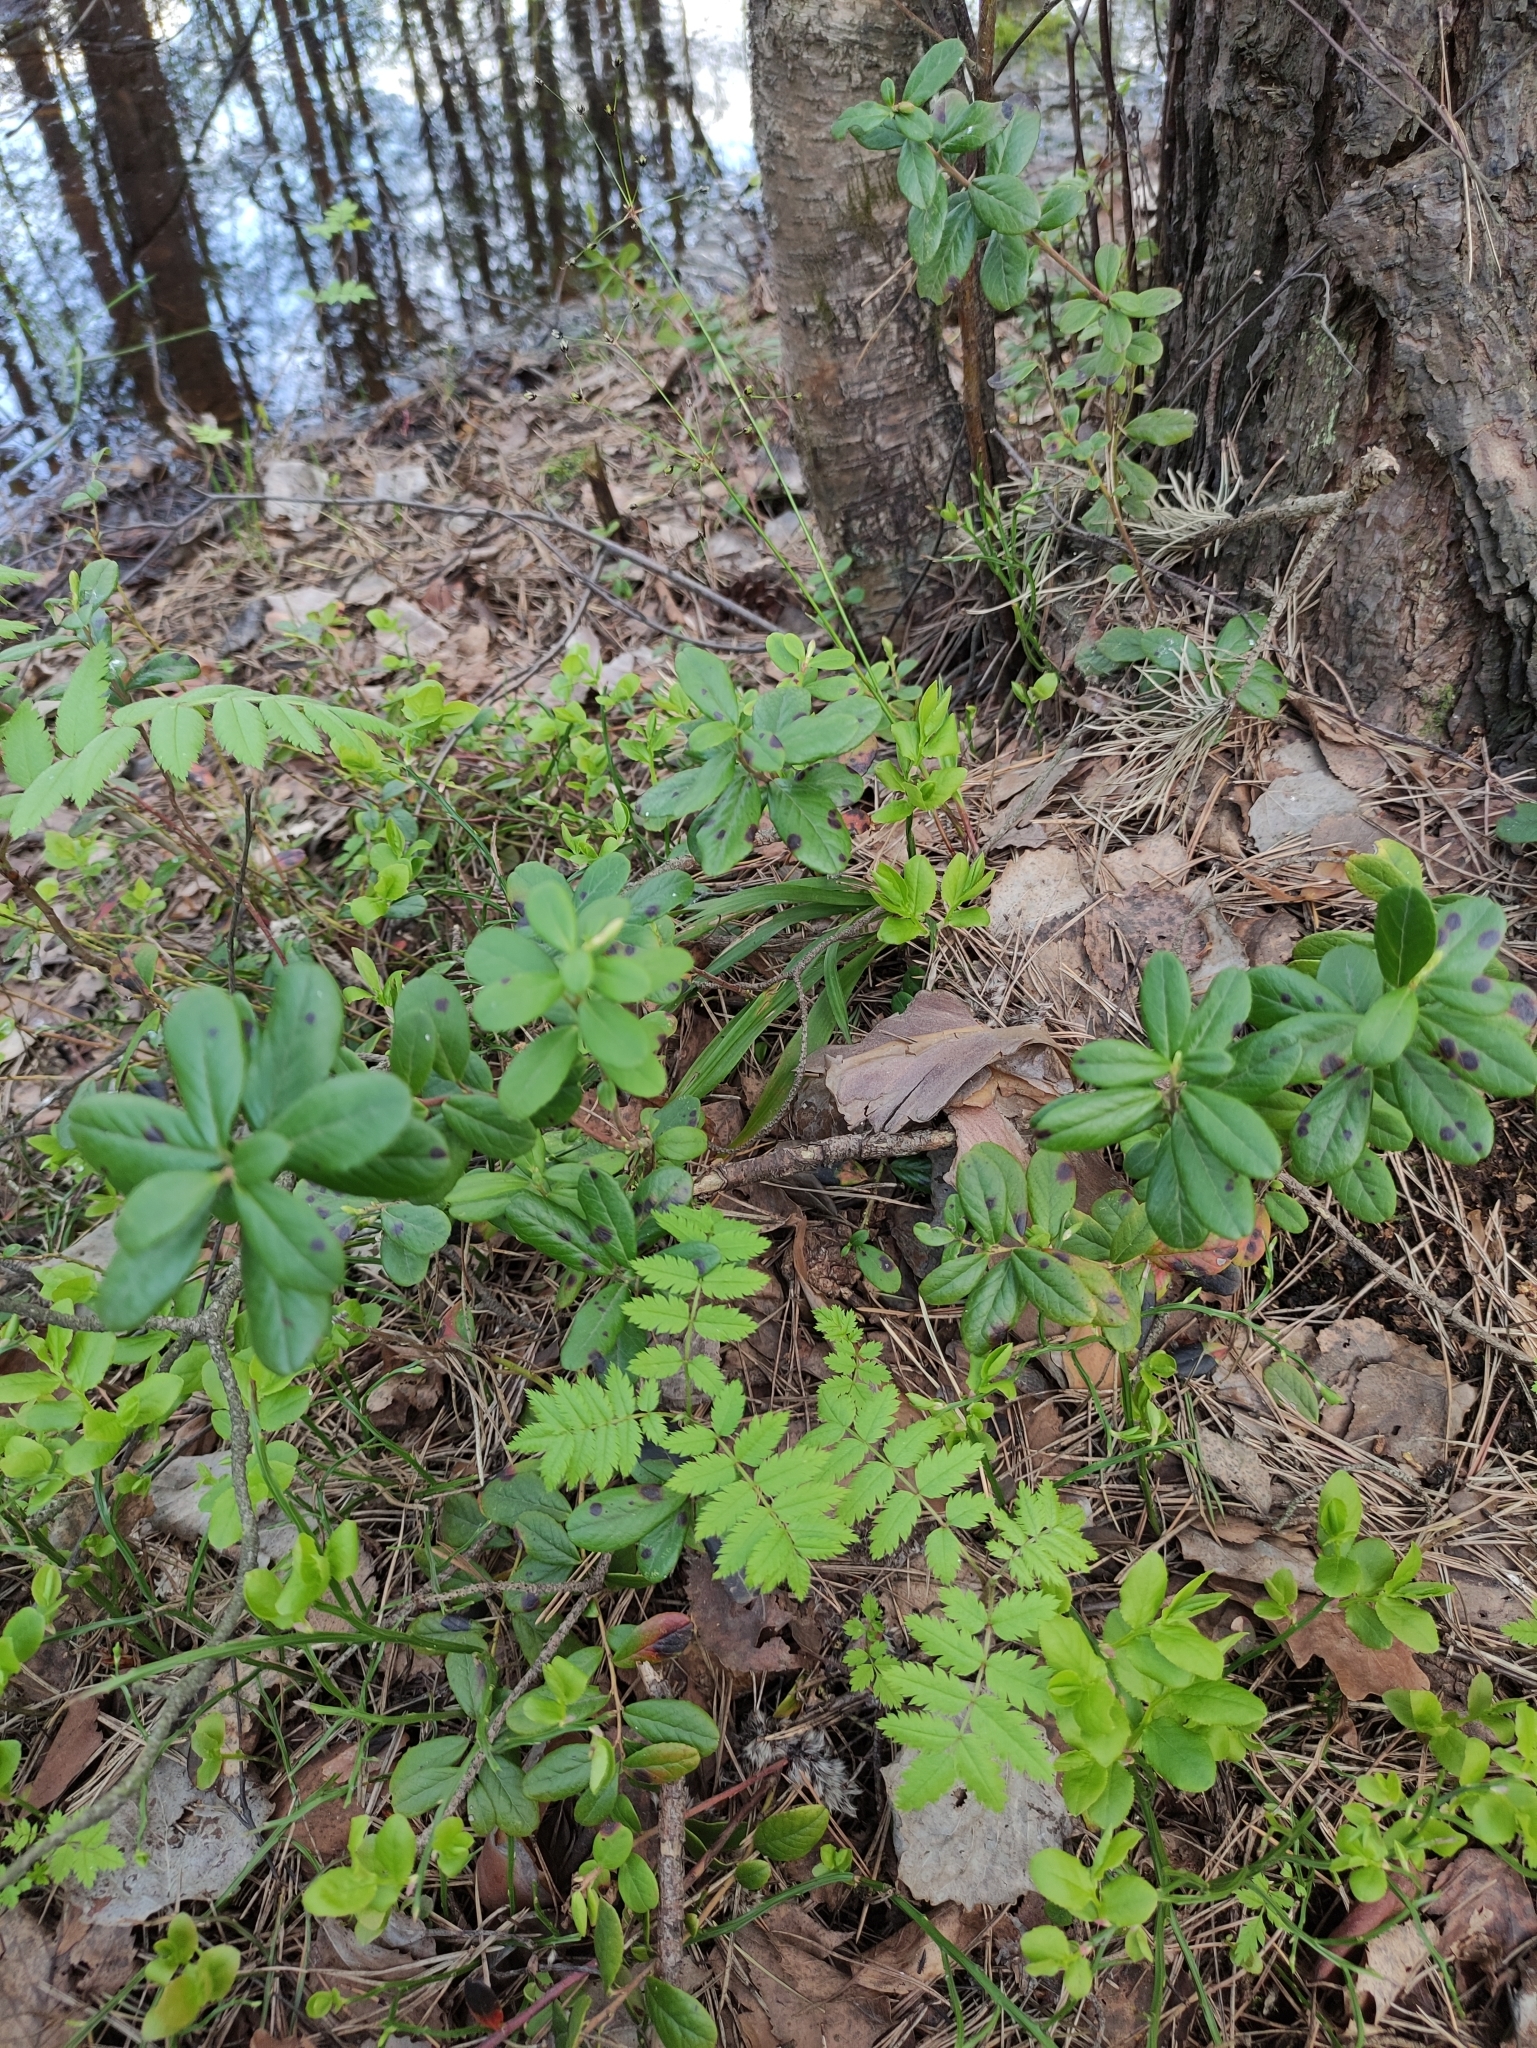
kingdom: Plantae
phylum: Tracheophyta
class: Magnoliopsida
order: Ericales
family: Ericaceae
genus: Vaccinium
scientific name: Vaccinium vitis-idaea
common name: Cowberry
